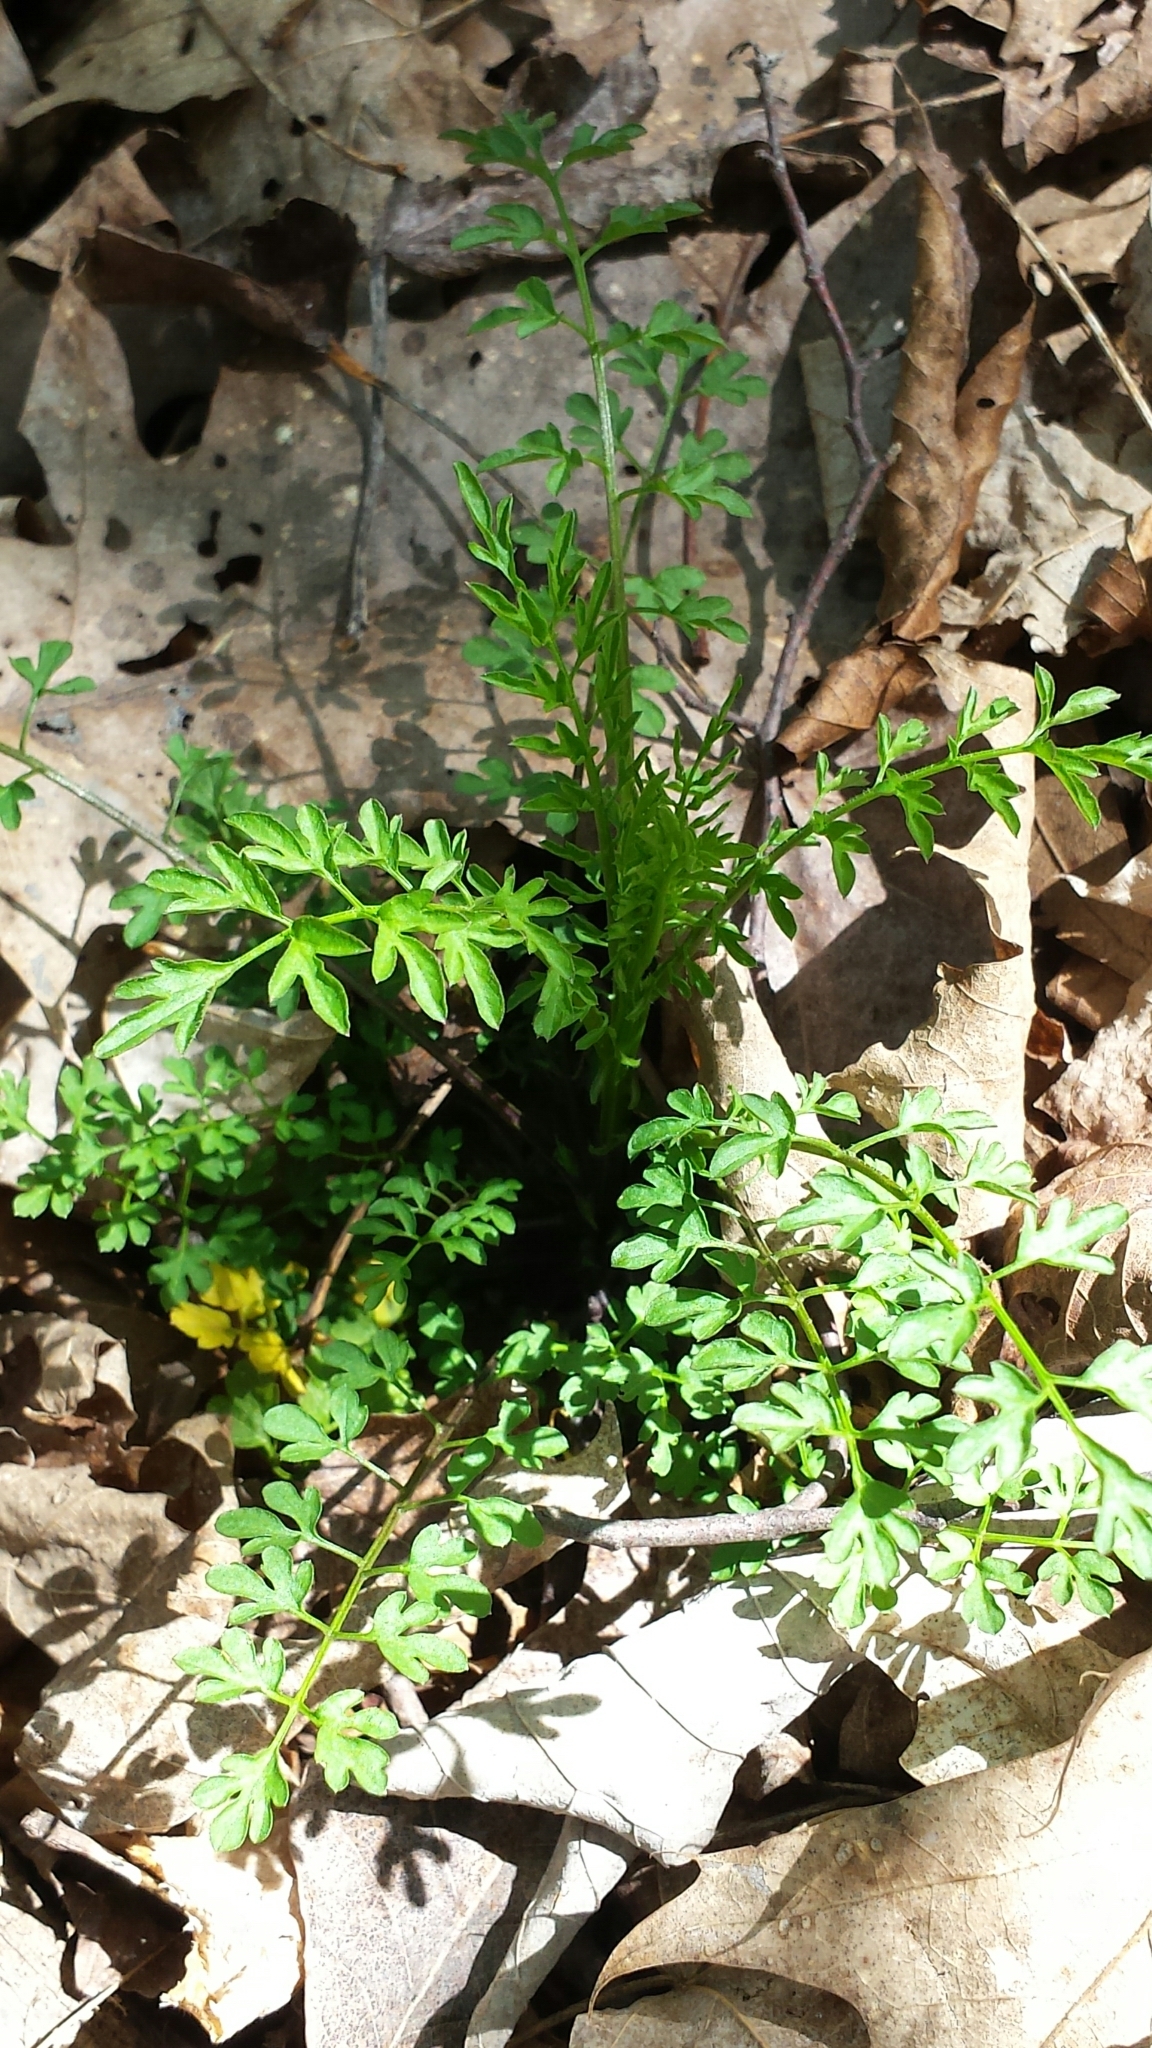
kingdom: Plantae
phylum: Tracheophyta
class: Magnoliopsida
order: Brassicales
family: Brassicaceae
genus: Cardamine
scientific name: Cardamine impatiens
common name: Narrow-leaved bitter-cress
